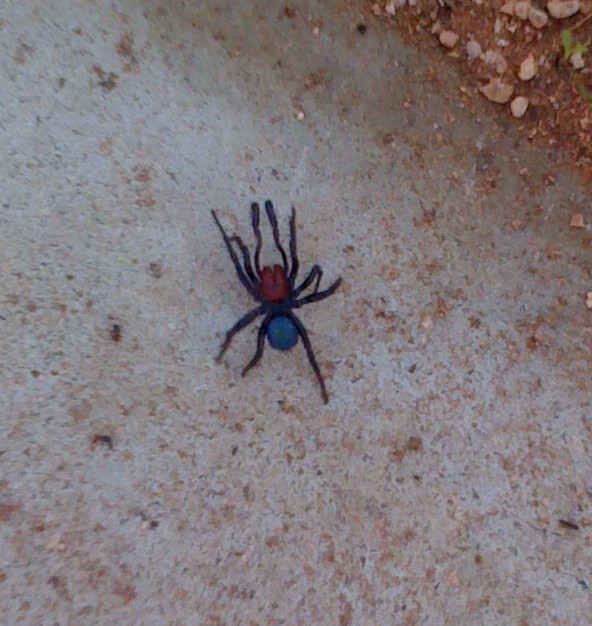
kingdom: Animalia
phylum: Arthropoda
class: Arachnida
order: Araneae
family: Actinopodidae
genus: Missulena
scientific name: Missulena occatoria
